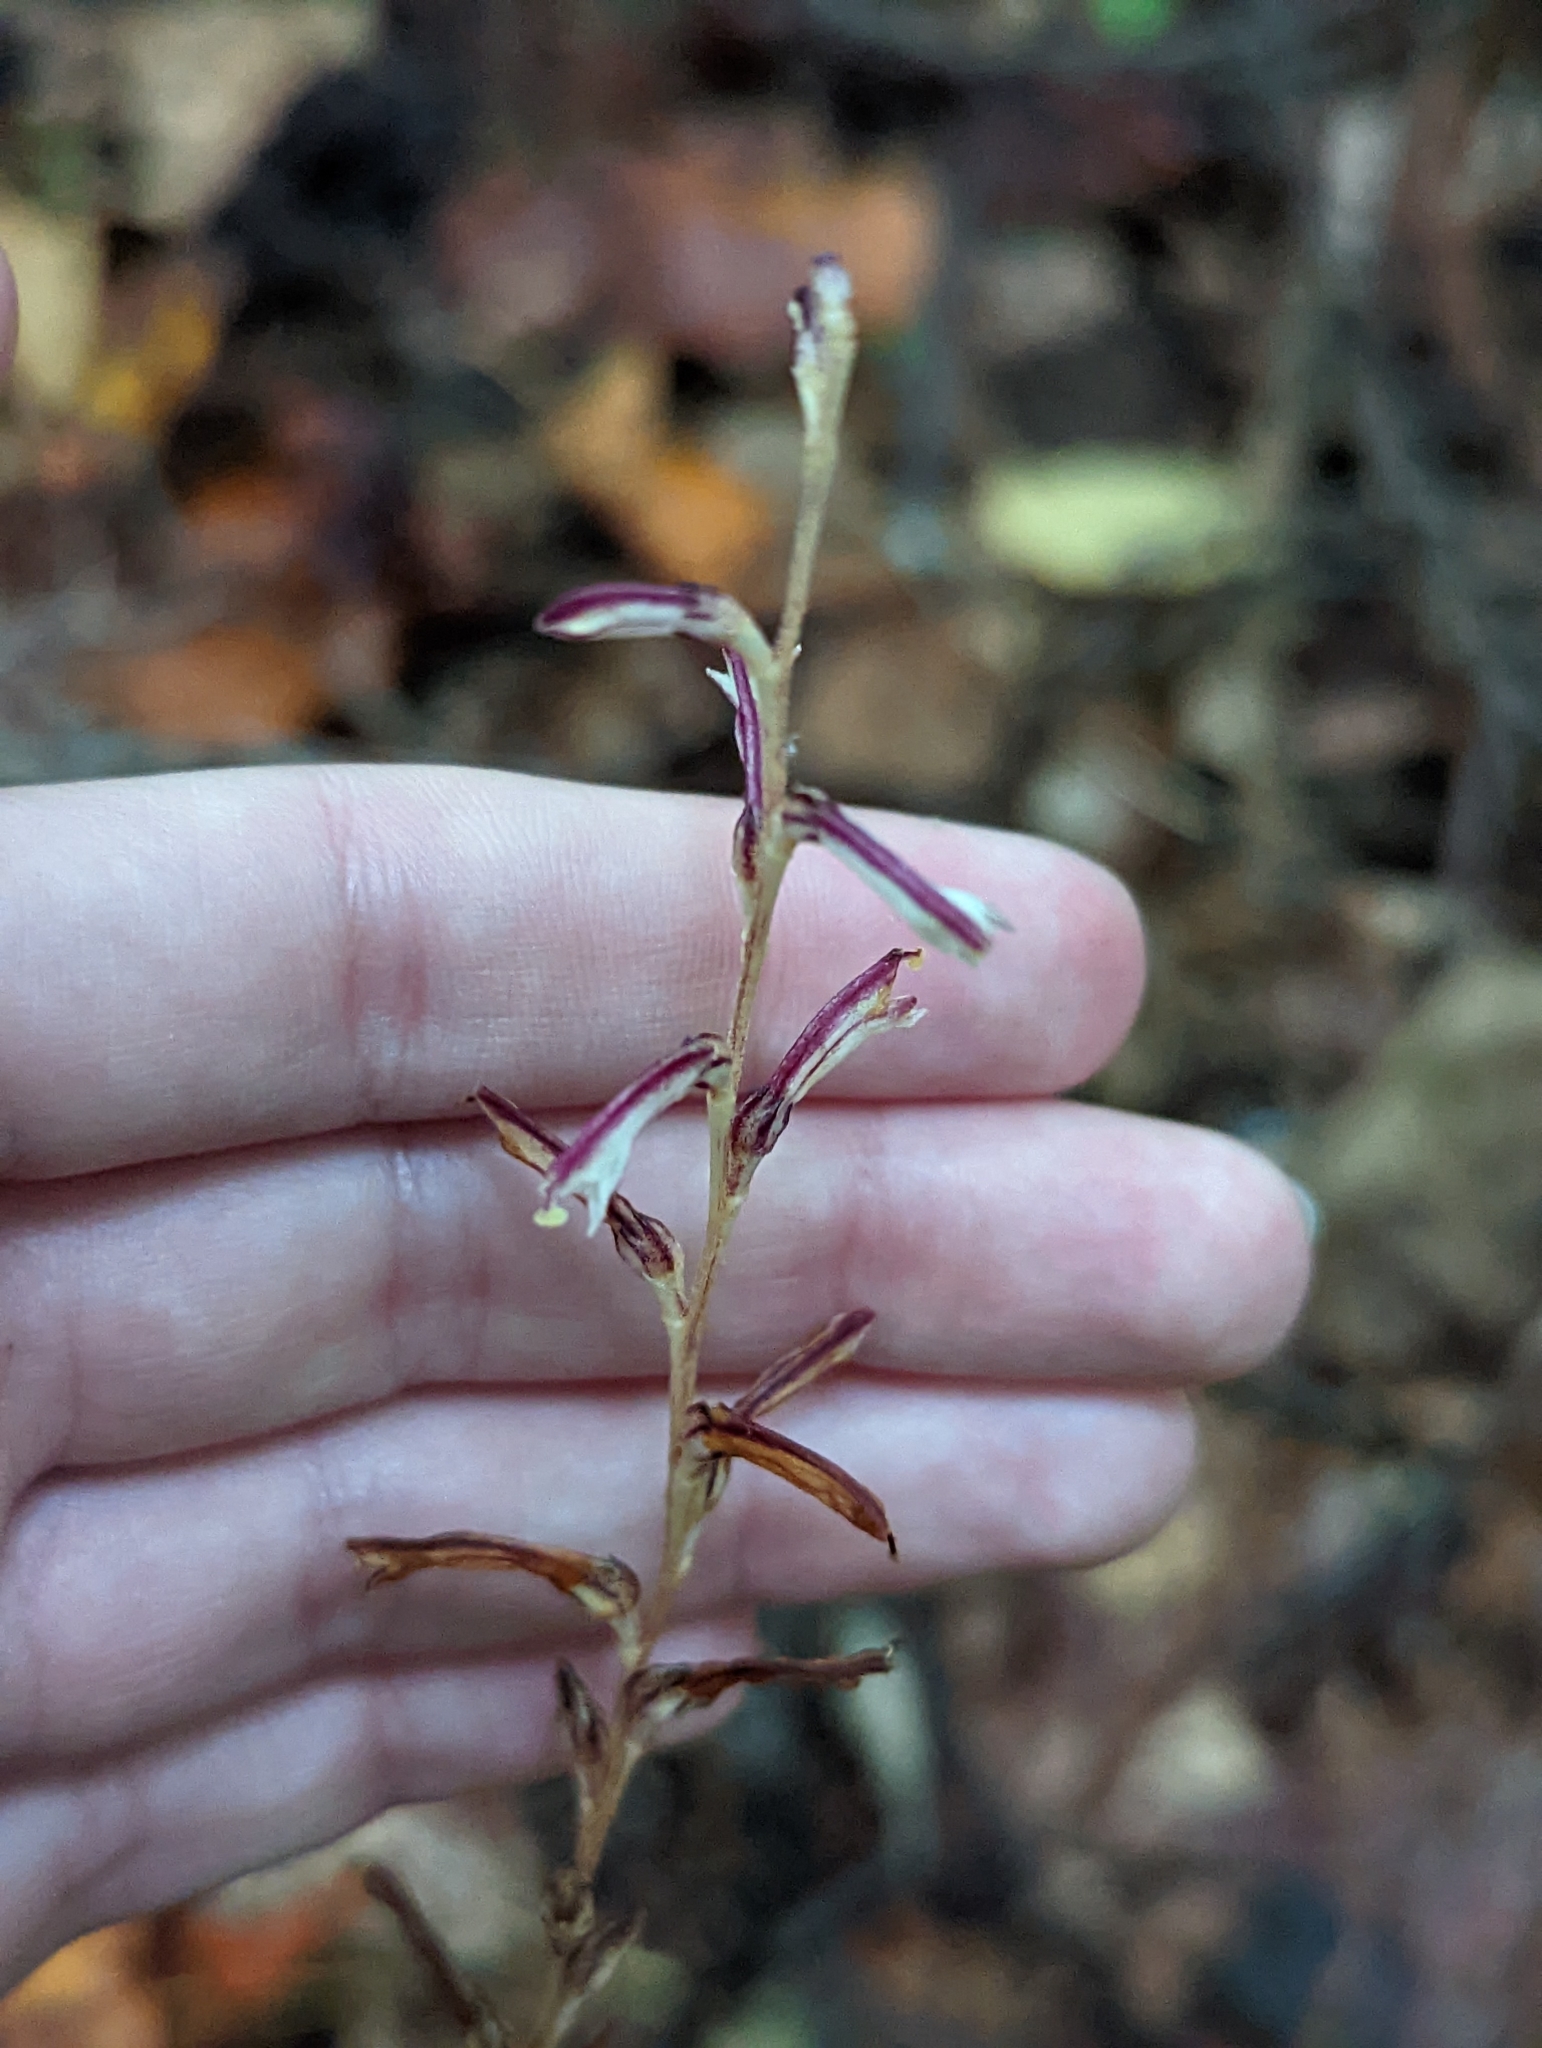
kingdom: Plantae
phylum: Tracheophyta
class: Magnoliopsida
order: Lamiales
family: Orobanchaceae
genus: Epifagus
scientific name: Epifagus virginiana
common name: Beechdrops
